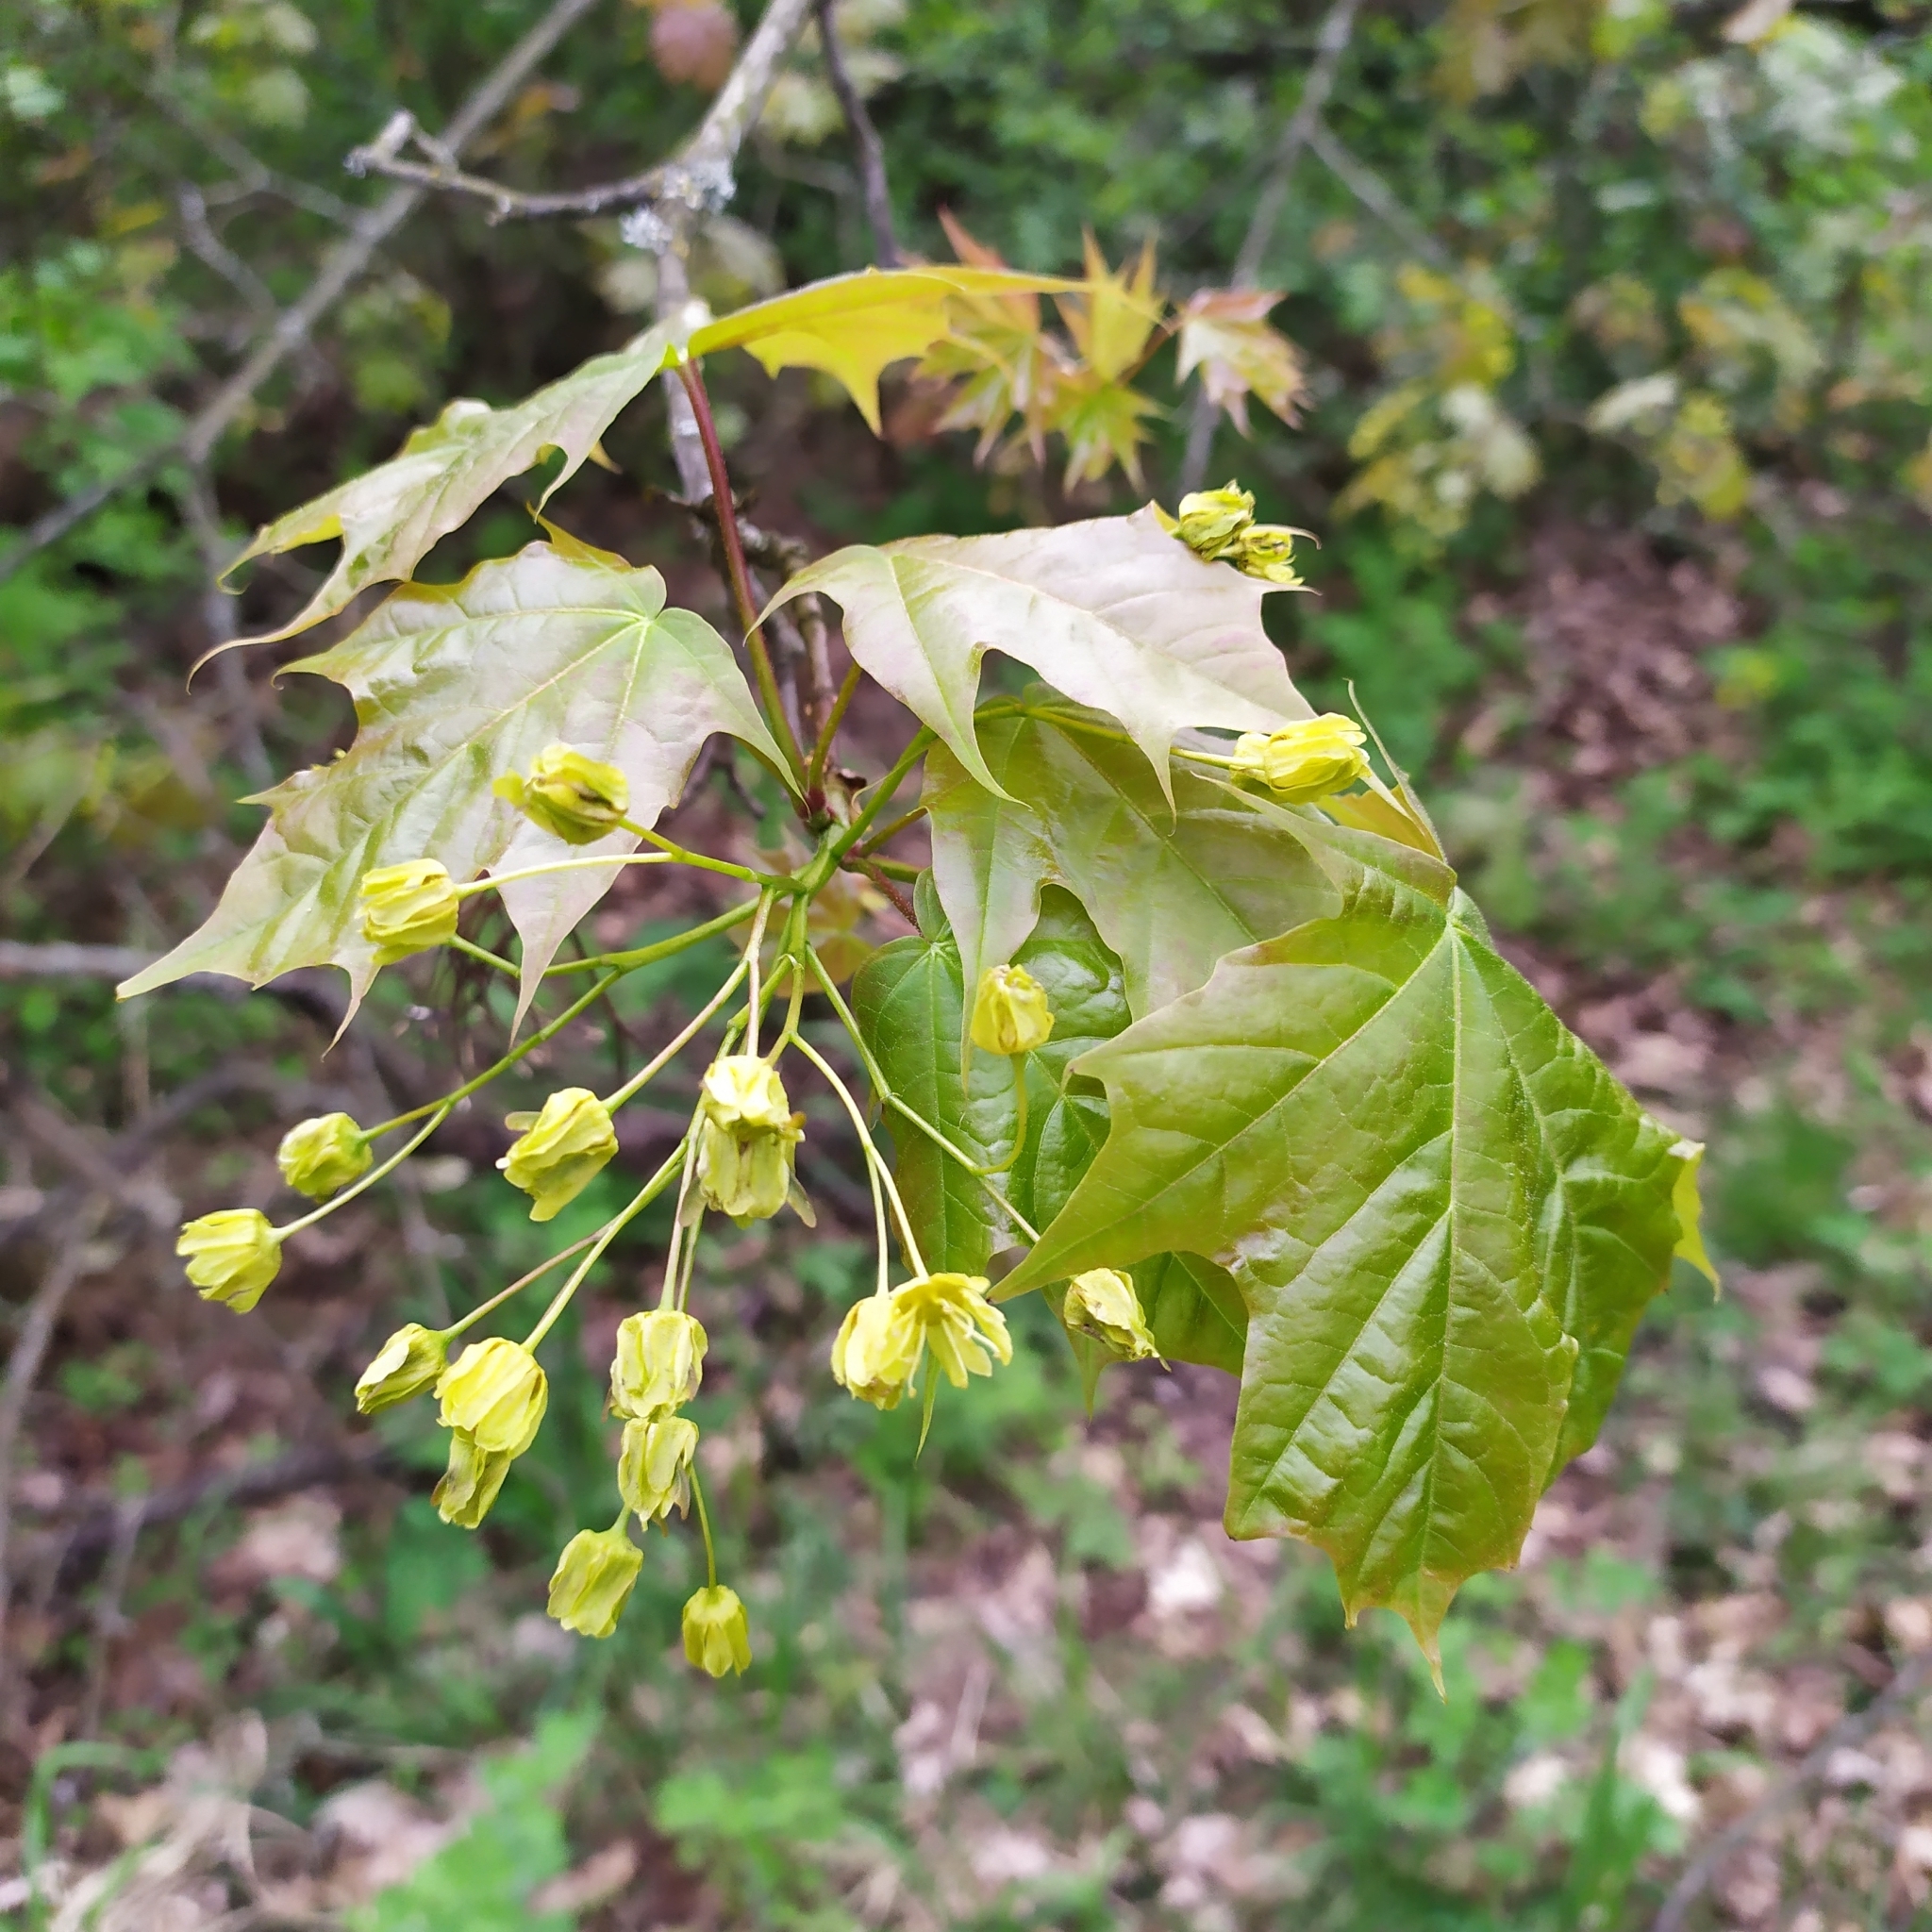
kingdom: Plantae
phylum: Tracheophyta
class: Magnoliopsida
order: Sapindales
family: Sapindaceae
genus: Acer
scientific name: Acer platanoides
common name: Norway maple
